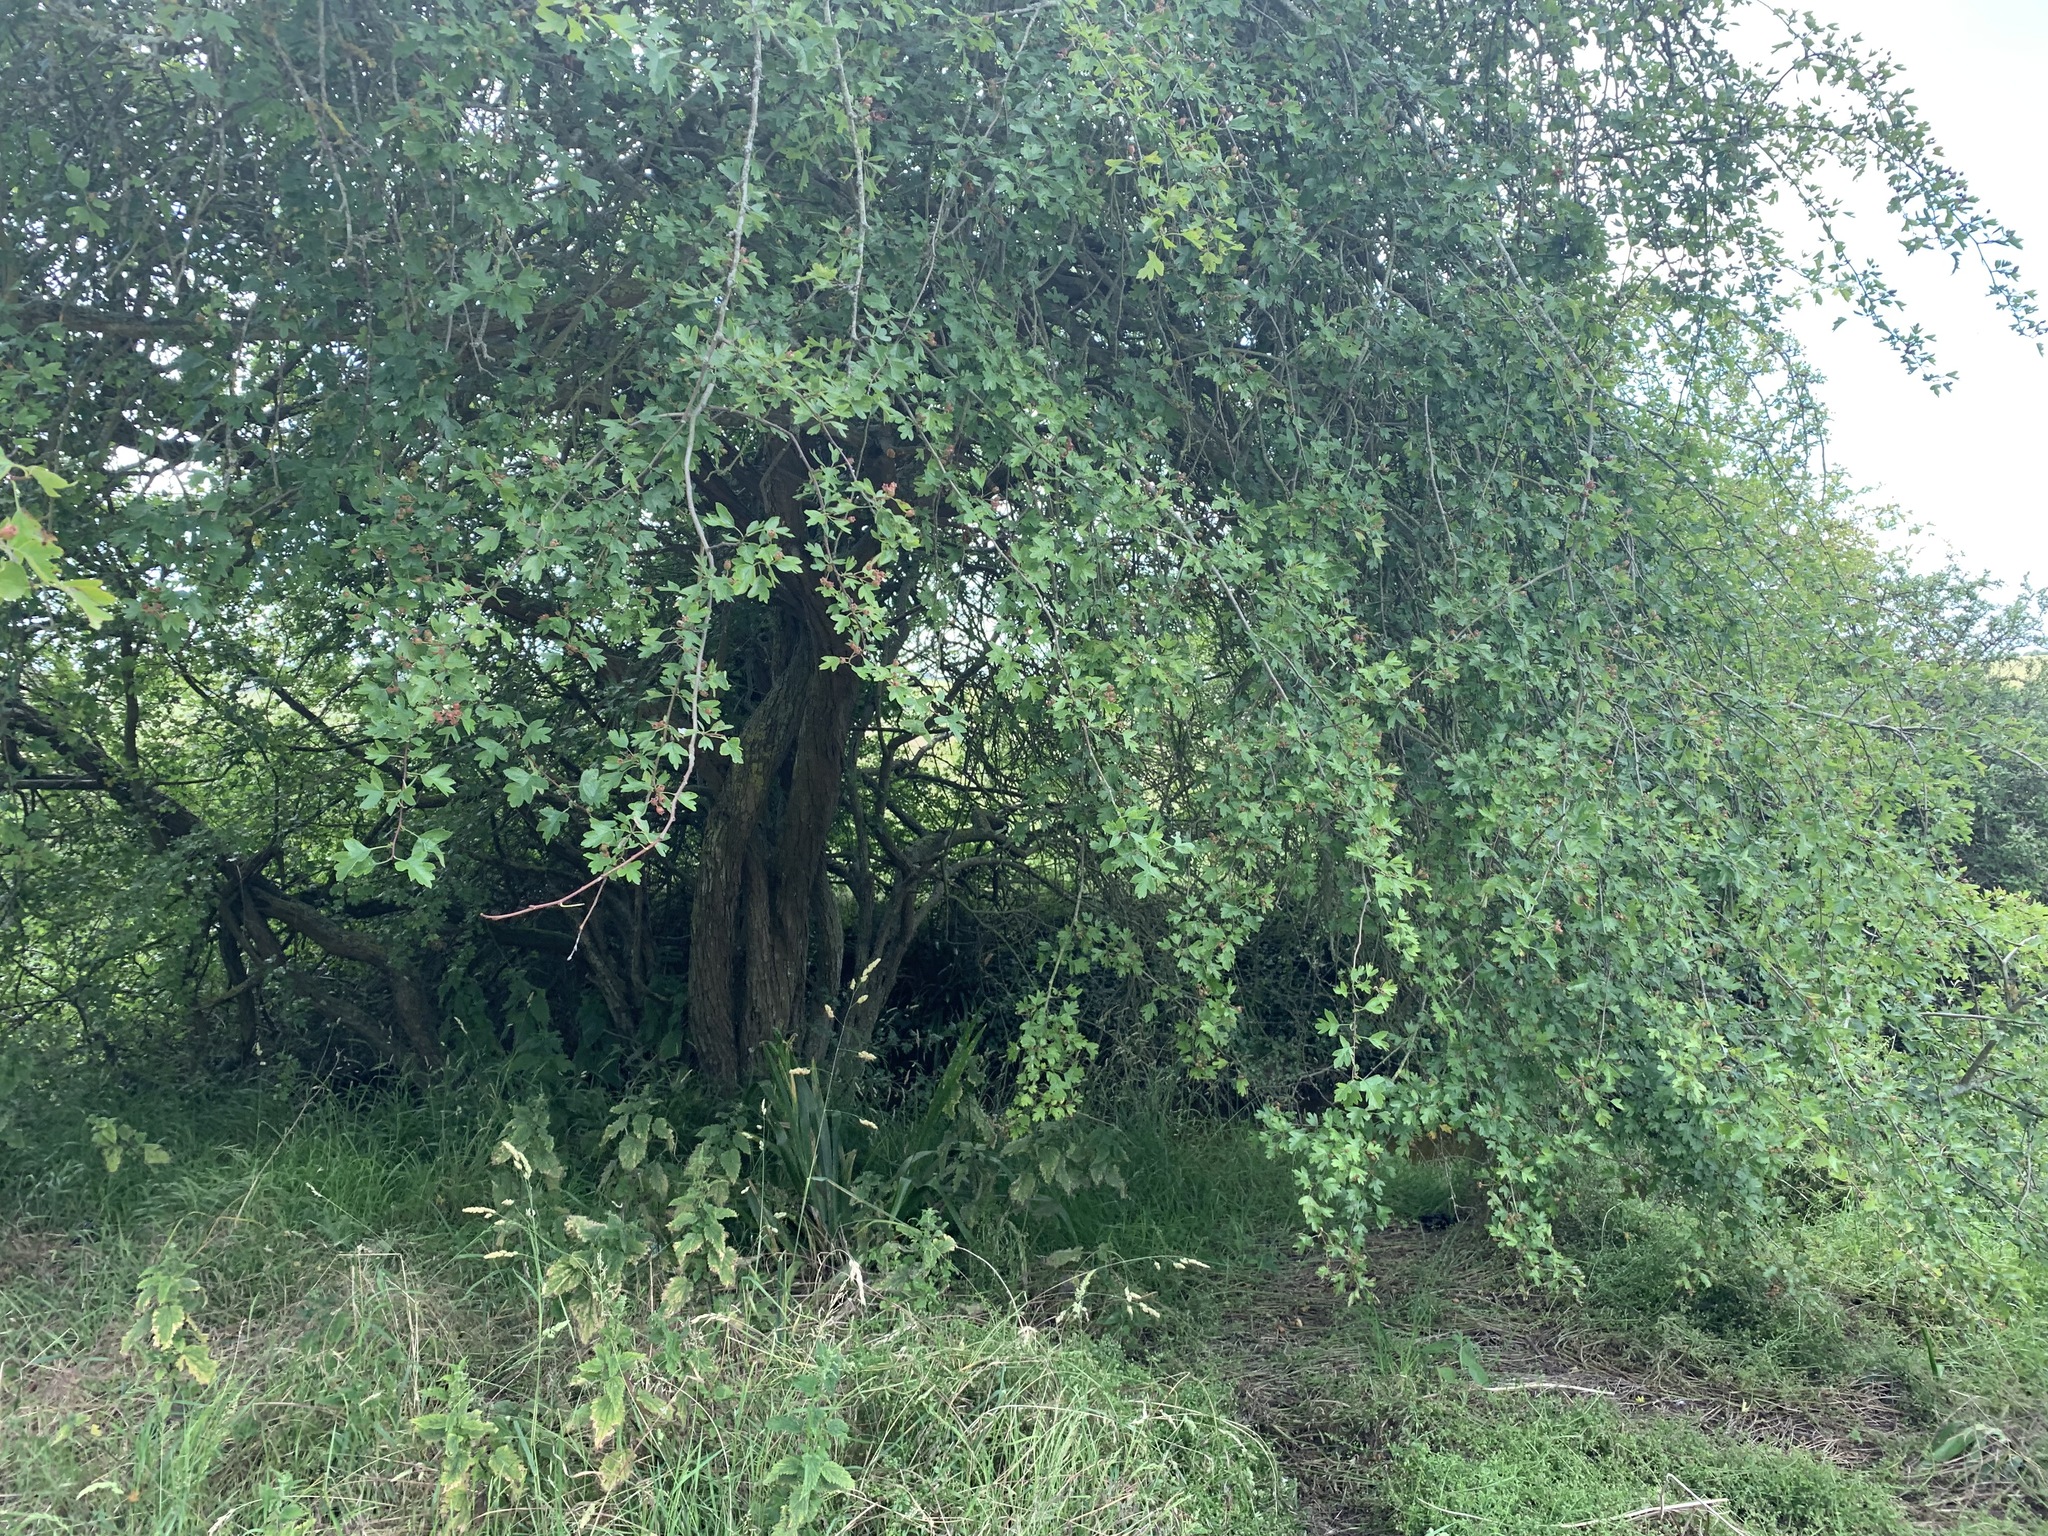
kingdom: Plantae
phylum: Tracheophyta
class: Magnoliopsida
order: Rosales
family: Rosaceae
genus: Crataegus
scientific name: Crataegus monogyna
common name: Hawthorn
